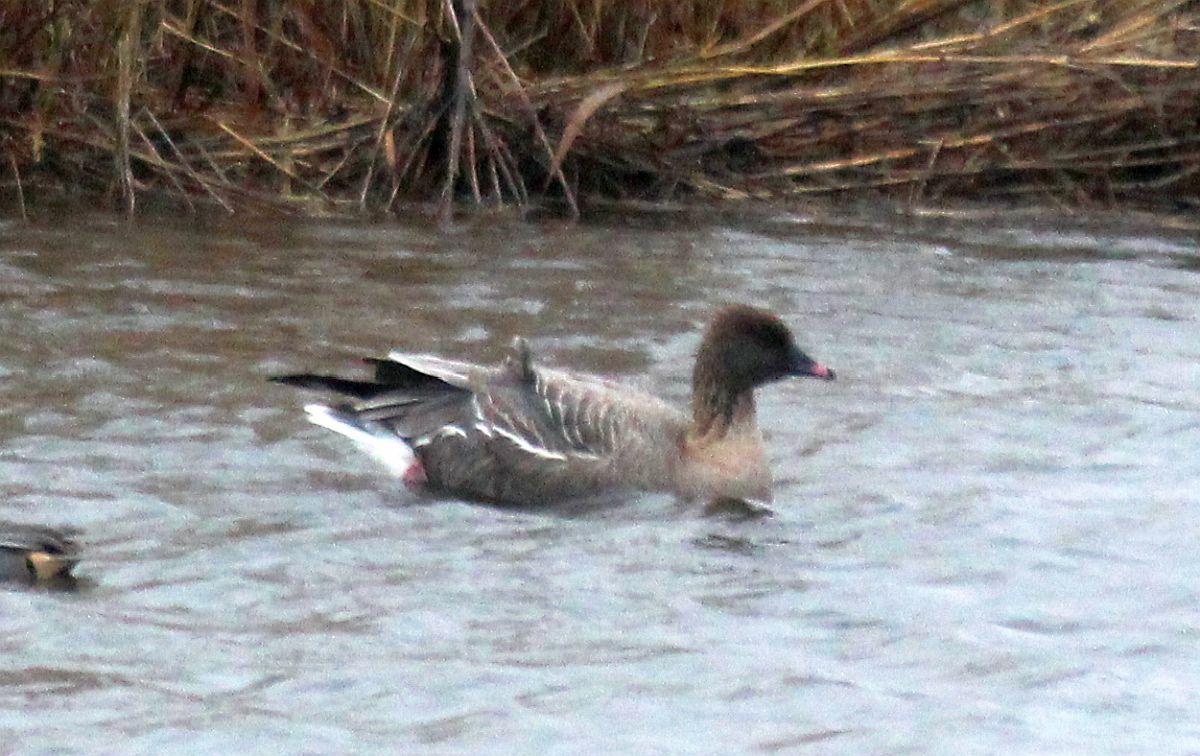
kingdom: Animalia
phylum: Chordata
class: Aves
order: Anseriformes
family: Anatidae
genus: Anser
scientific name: Anser brachyrhynchus
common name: Pink-footed goose
